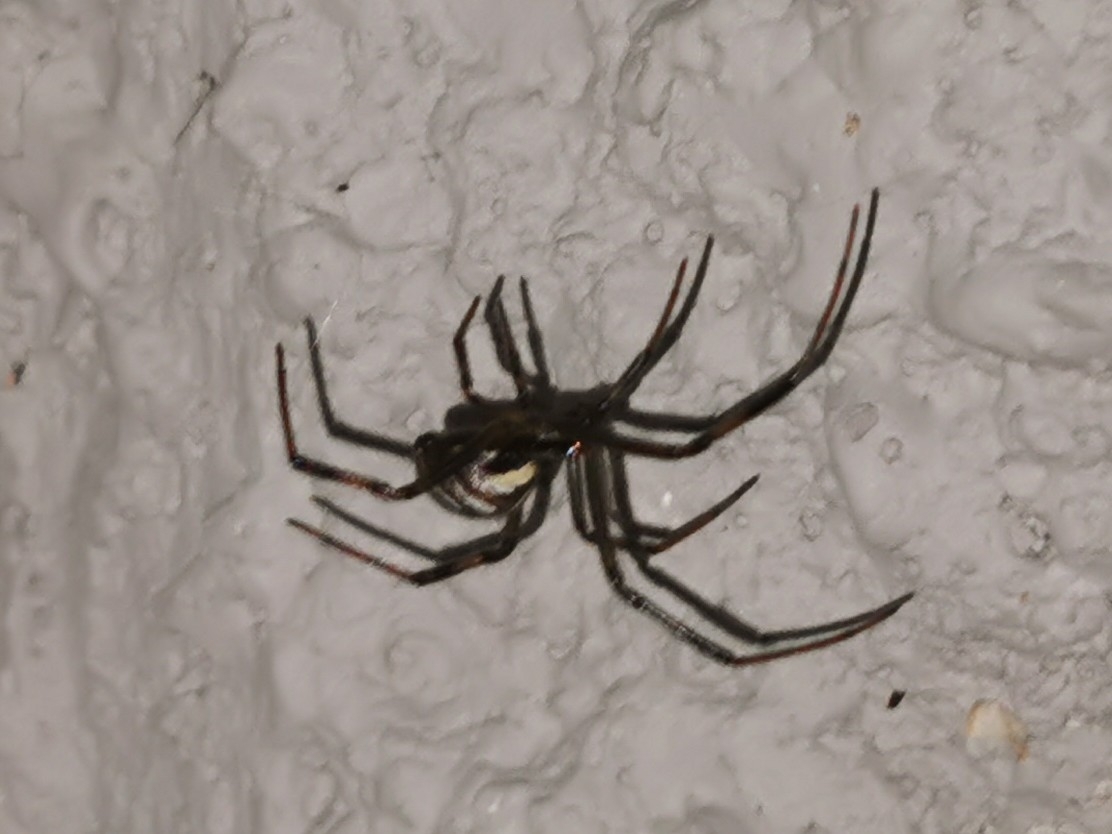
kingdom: Animalia
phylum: Arthropoda
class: Arachnida
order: Araneae
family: Theridiidae
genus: Latrodectus
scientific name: Latrodectus hesperus
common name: Western black widow
